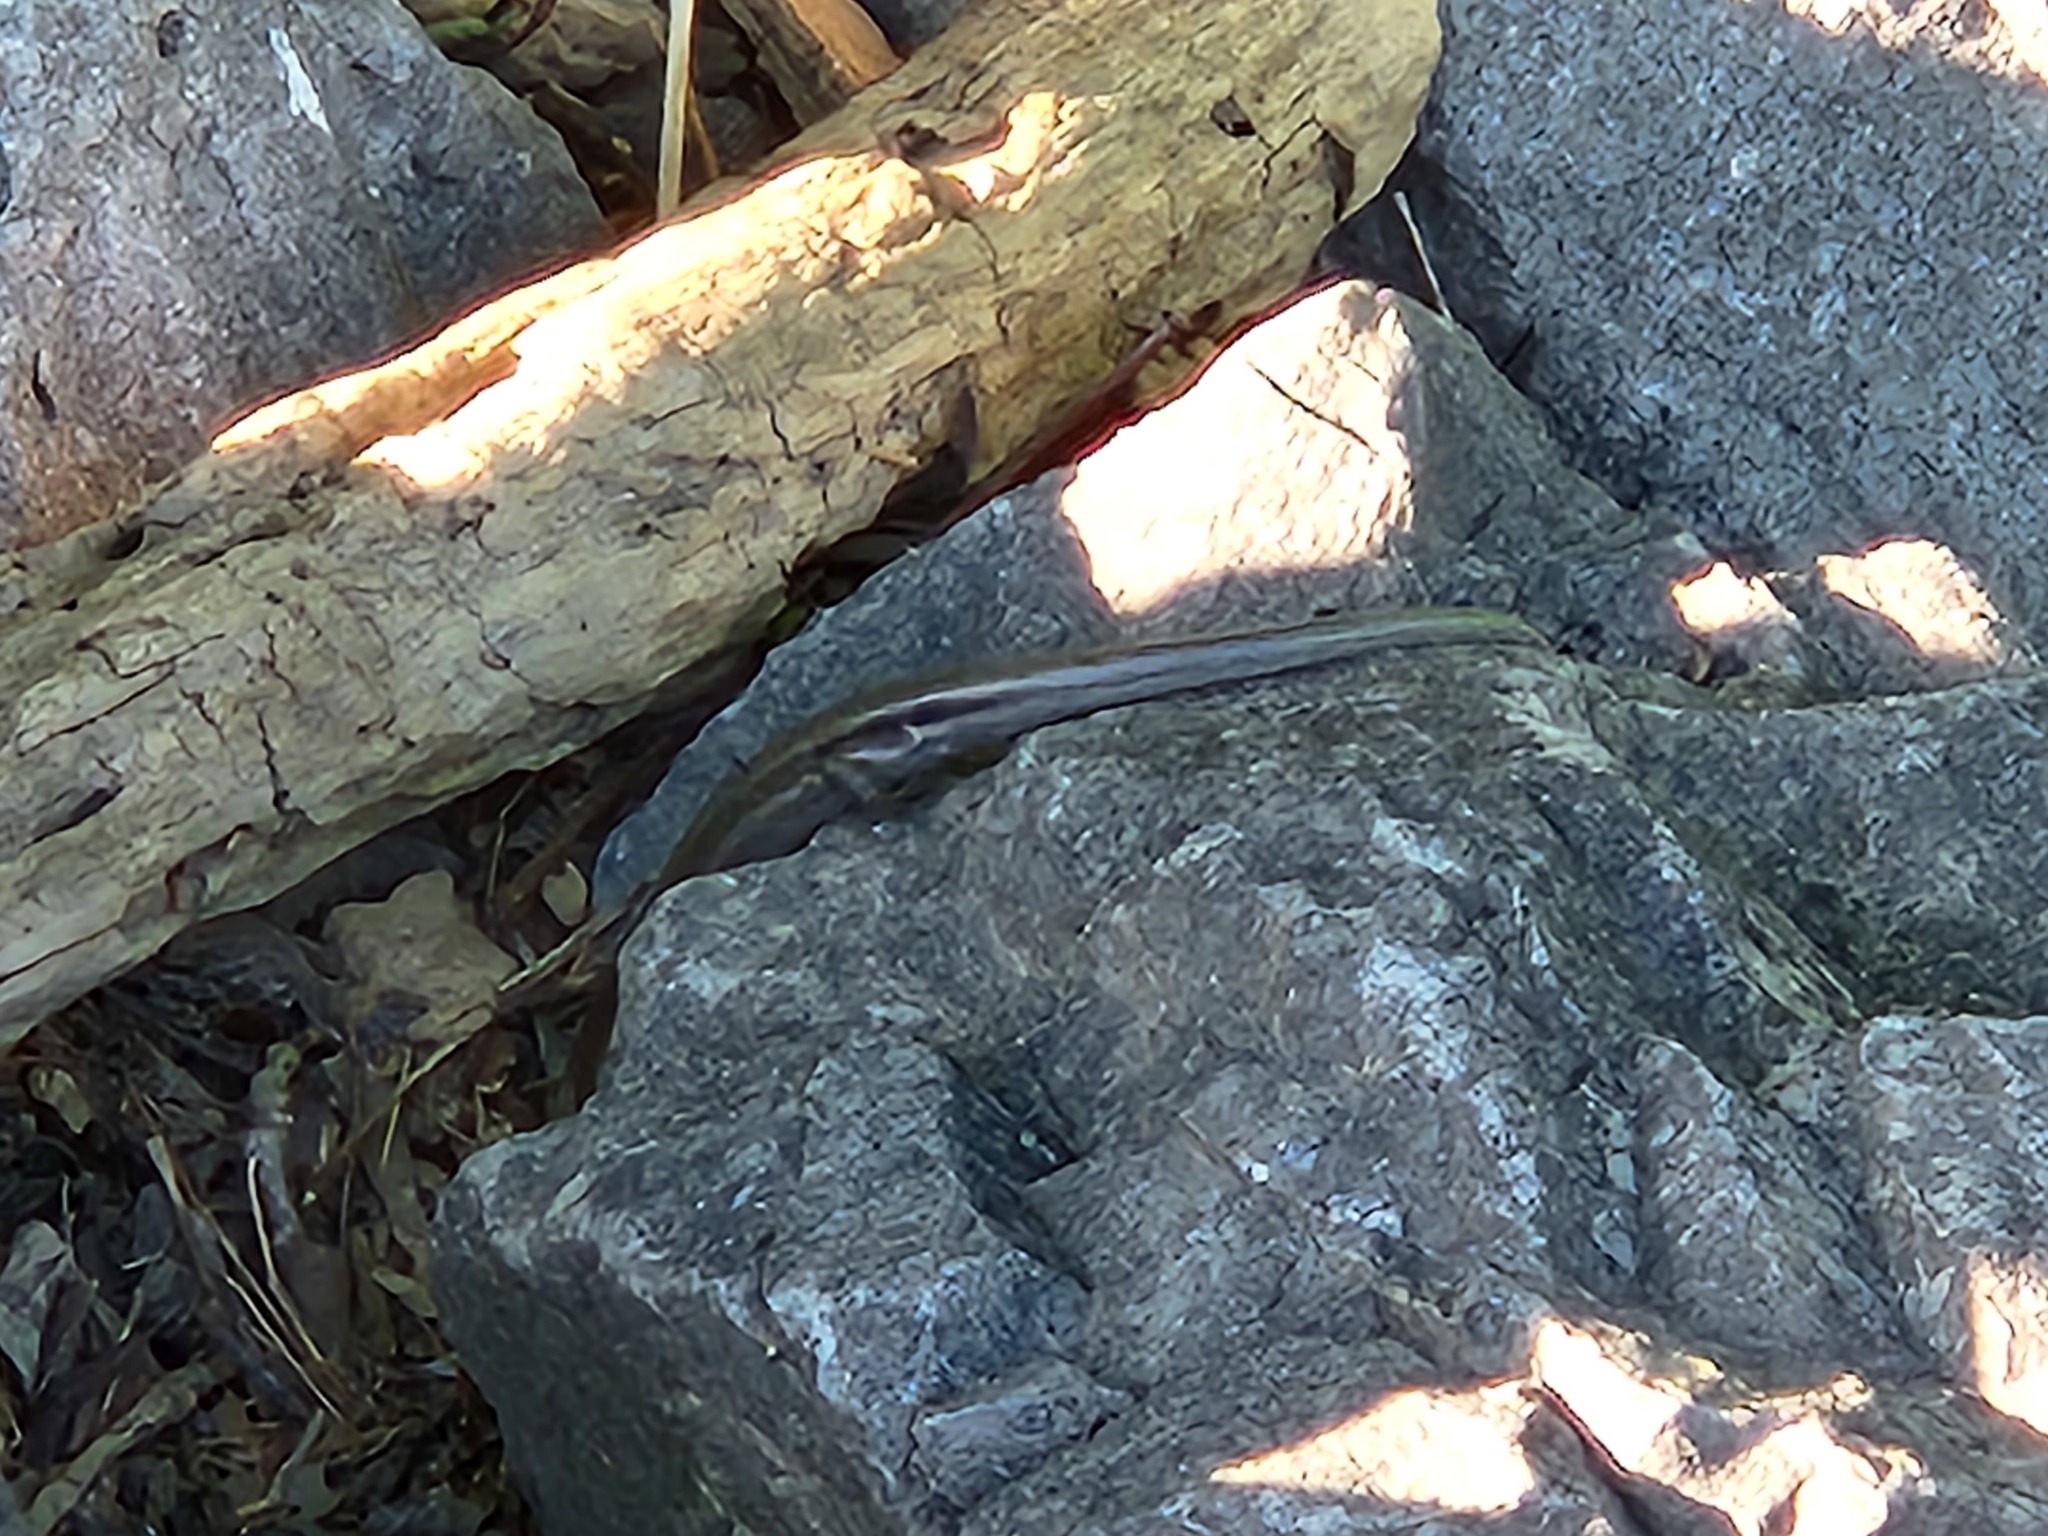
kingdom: Animalia
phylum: Chordata
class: Squamata
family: Scincidae
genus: Plestiodon
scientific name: Plestiodon fasciatus
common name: Five-lined skink
